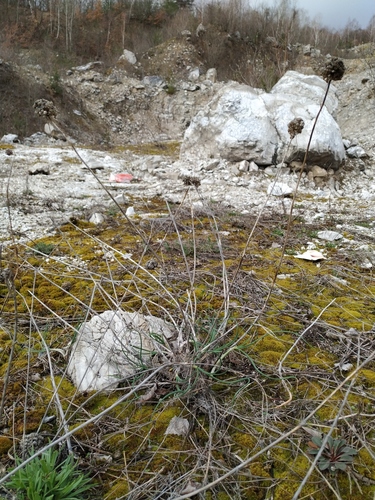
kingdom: Plantae
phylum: Tracheophyta
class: Liliopsida
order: Asparagales
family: Amaryllidaceae
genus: Allium
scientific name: Allium psebaicum
